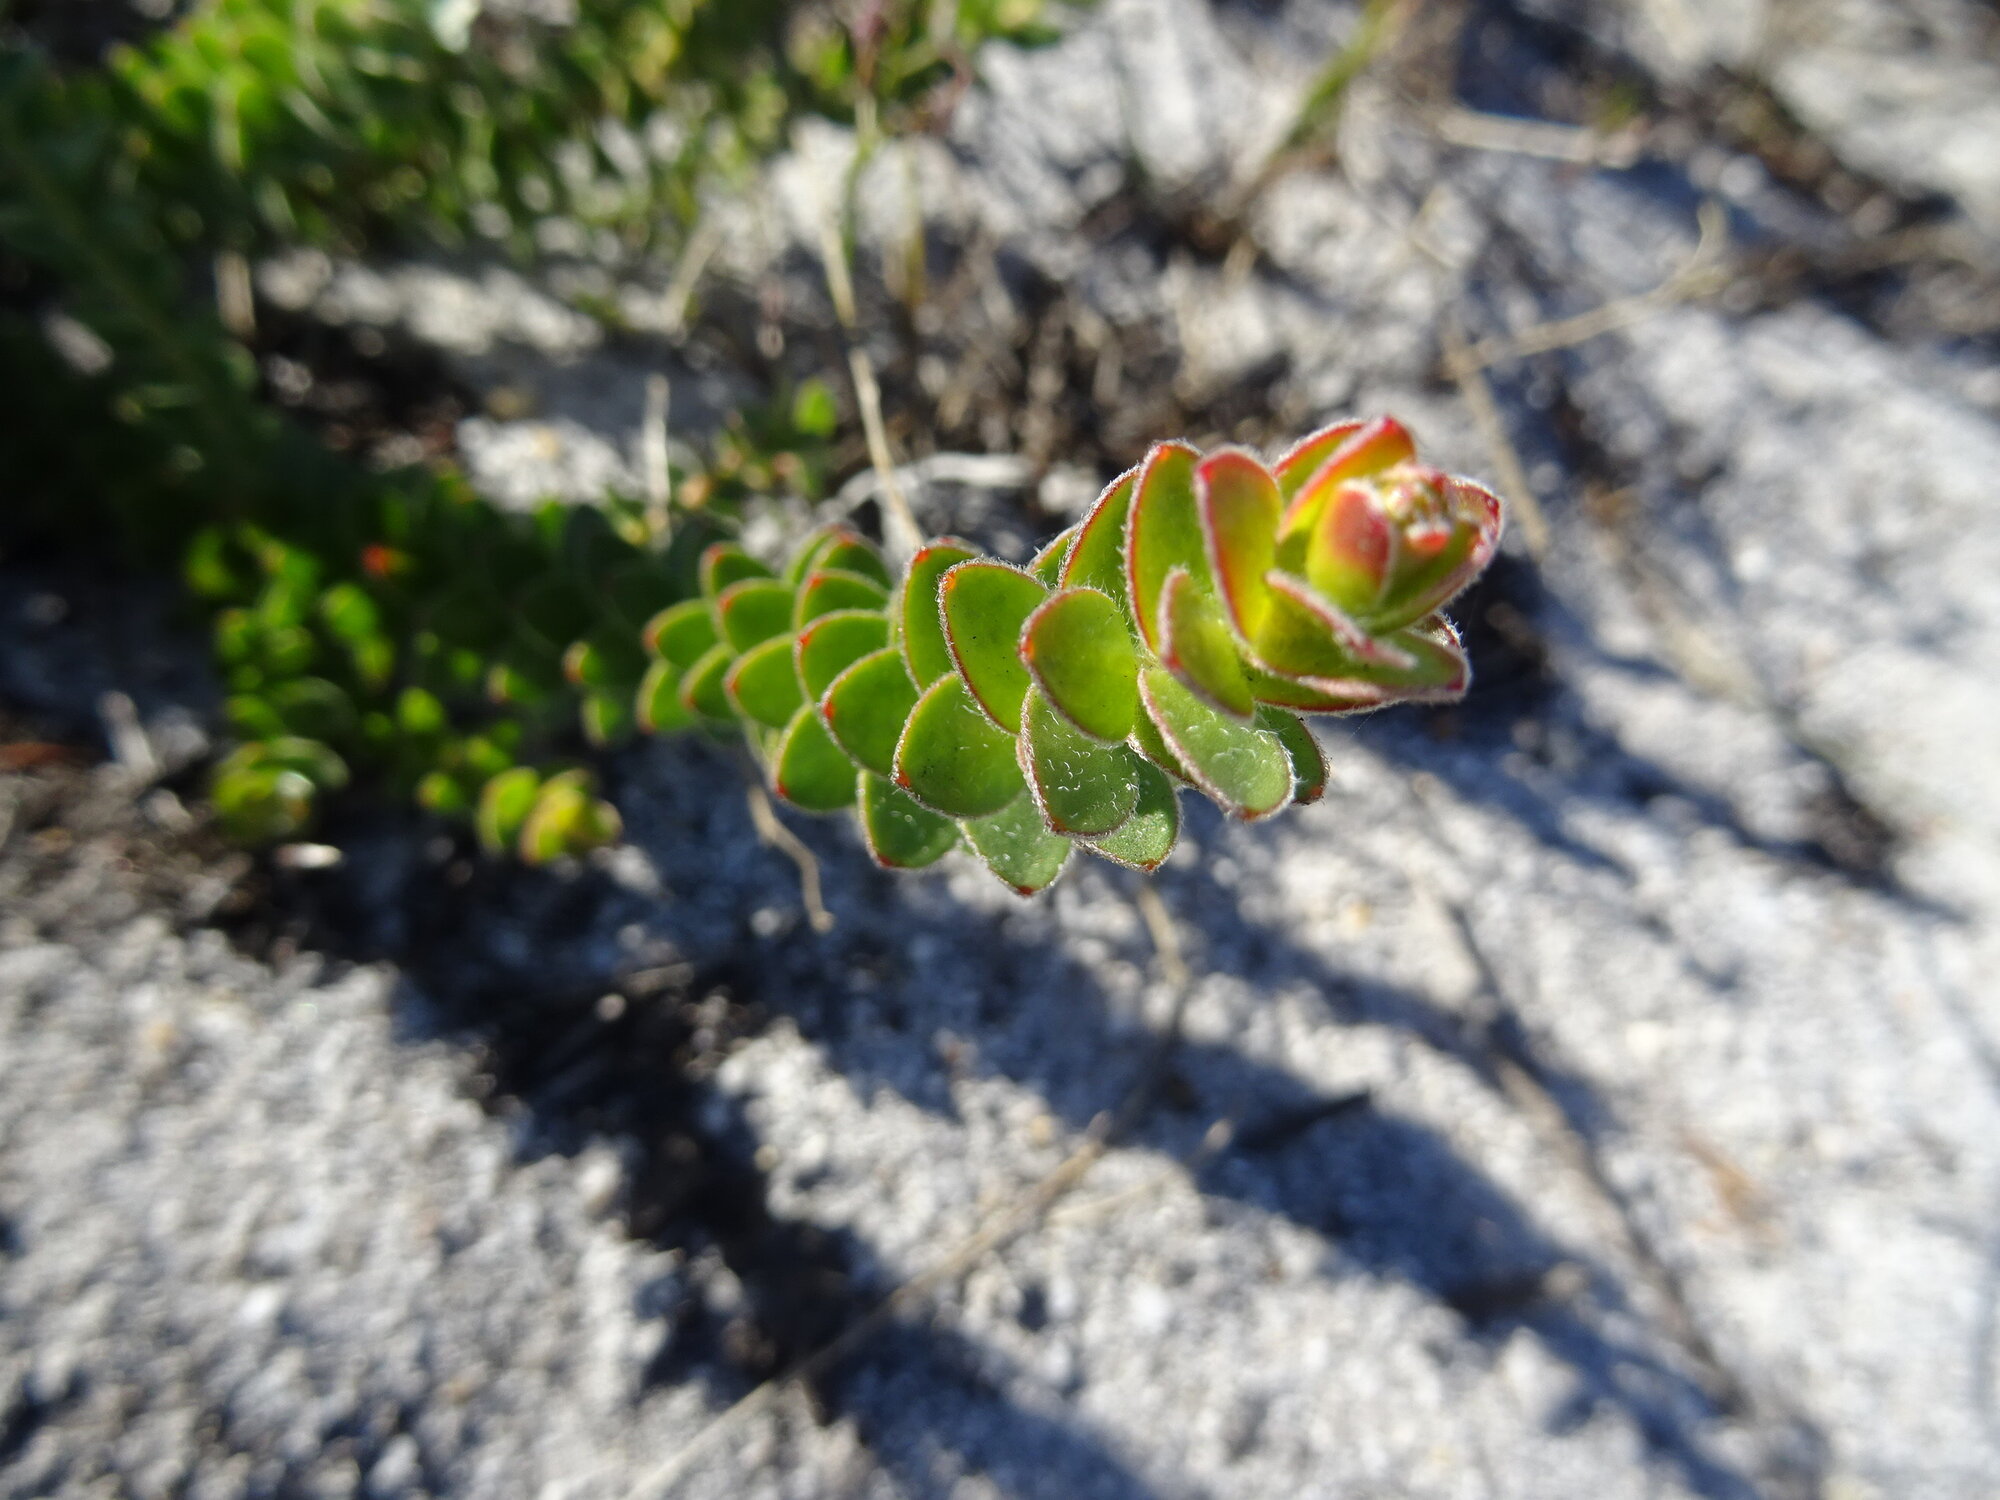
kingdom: Plantae
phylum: Tracheophyta
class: Magnoliopsida
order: Proteales
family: Proteaceae
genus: Diastella
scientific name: Diastella divaricata
